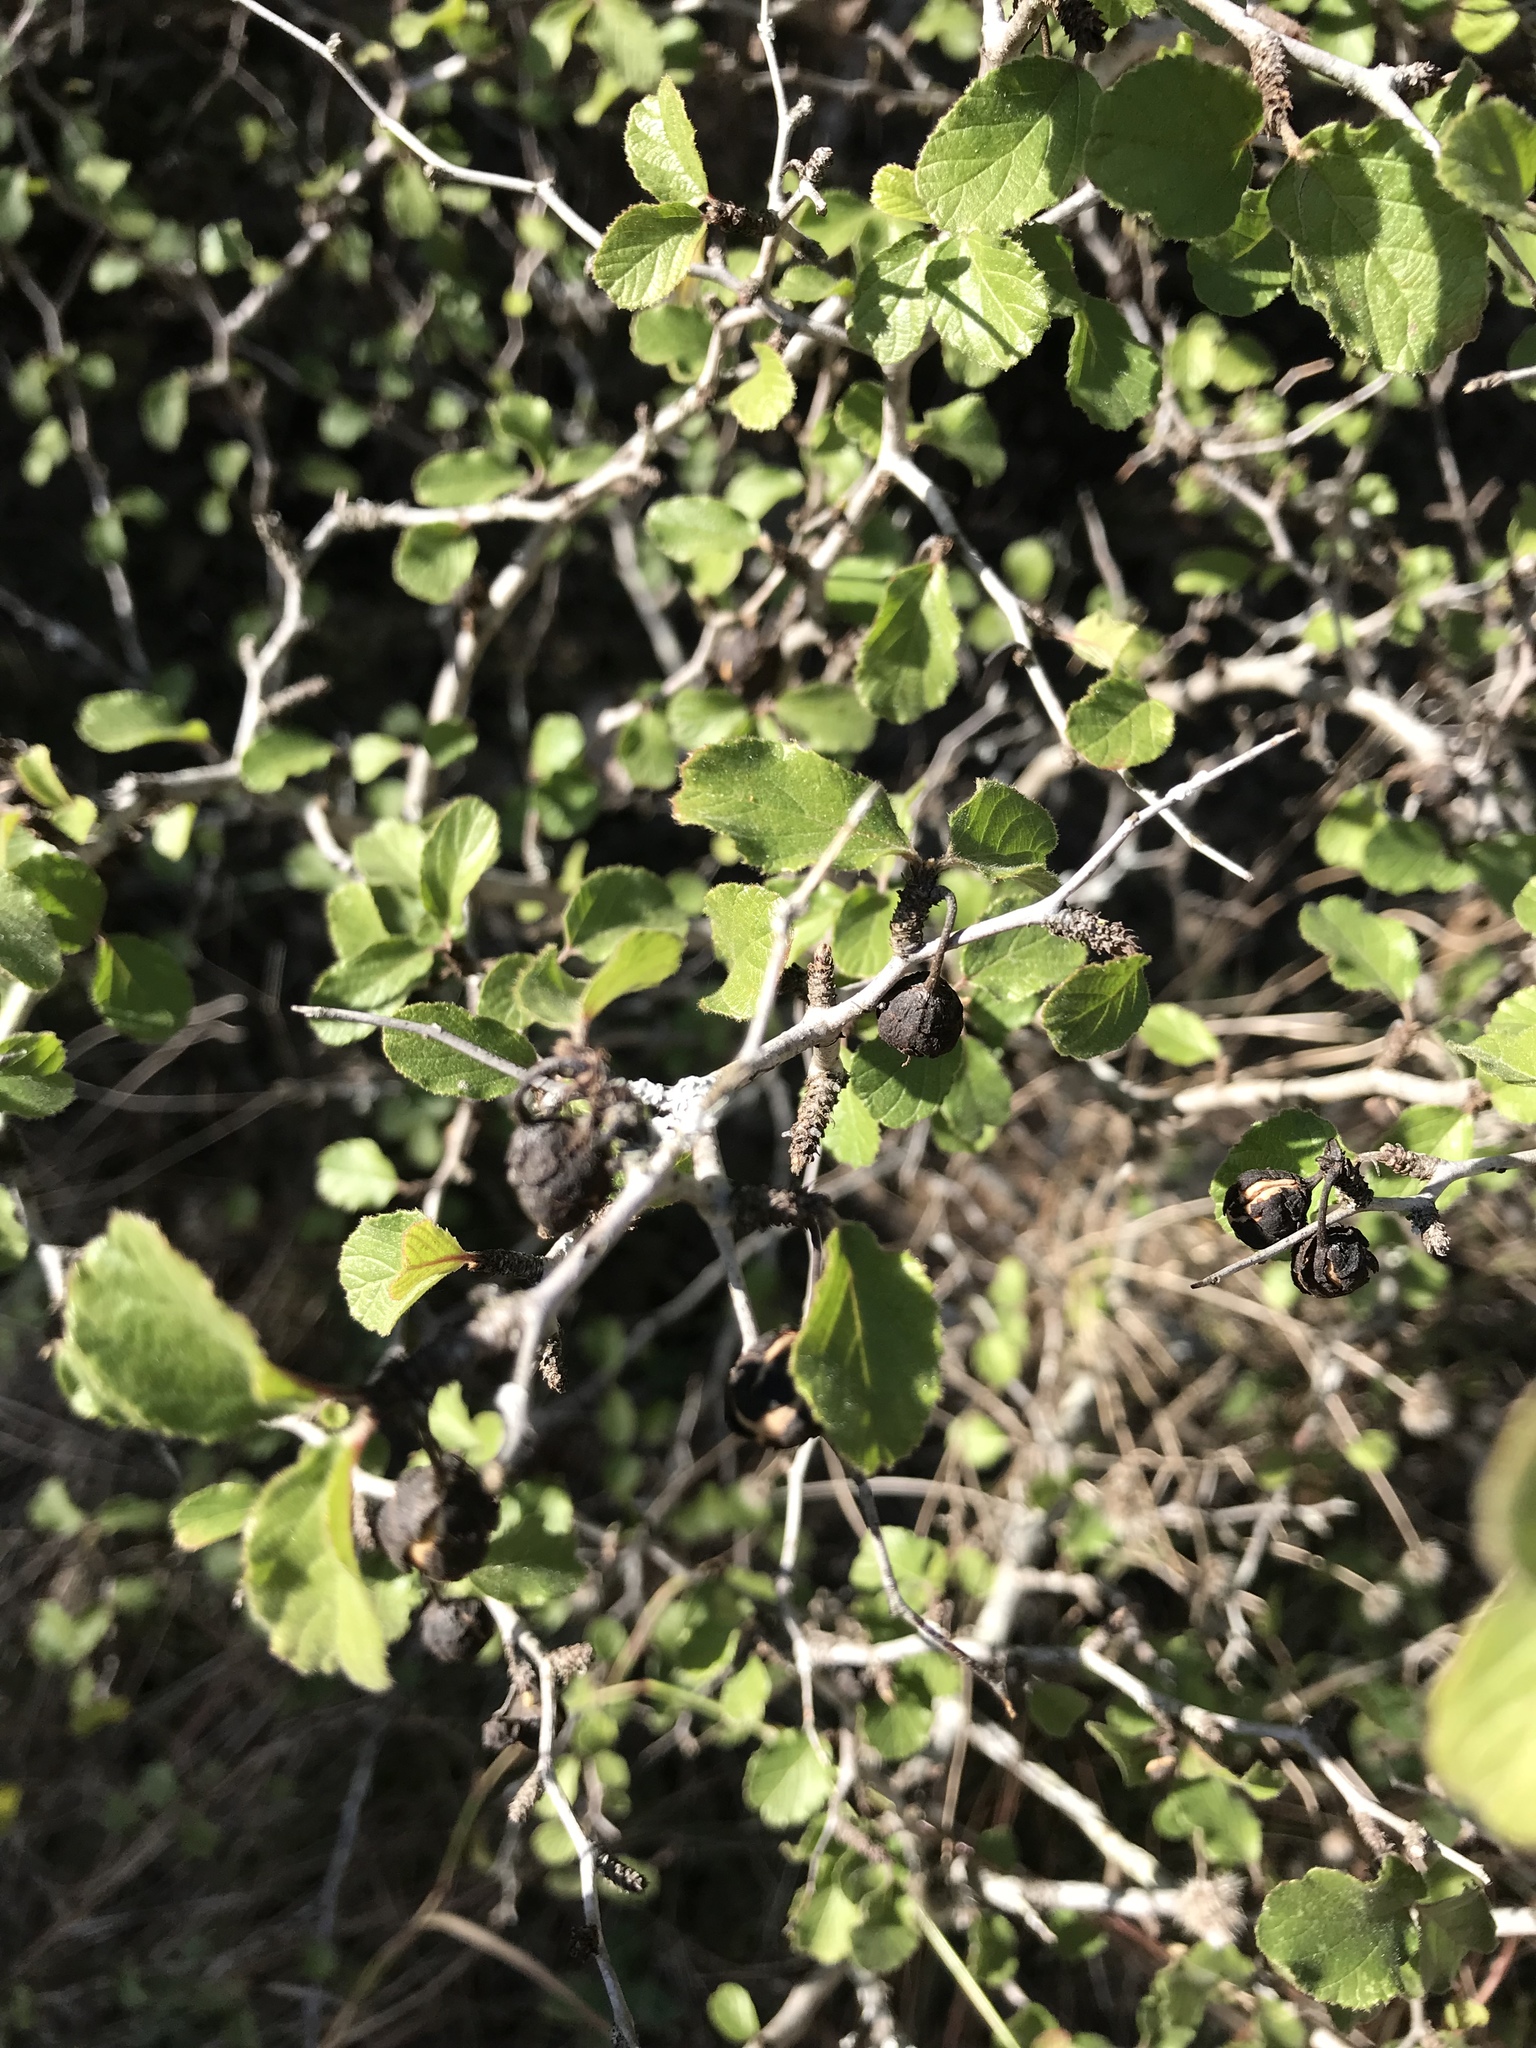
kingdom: Plantae
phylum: Tracheophyta
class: Magnoliopsida
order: Rosales
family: Rhamnaceae
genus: Colubrina
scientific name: Colubrina texensis
